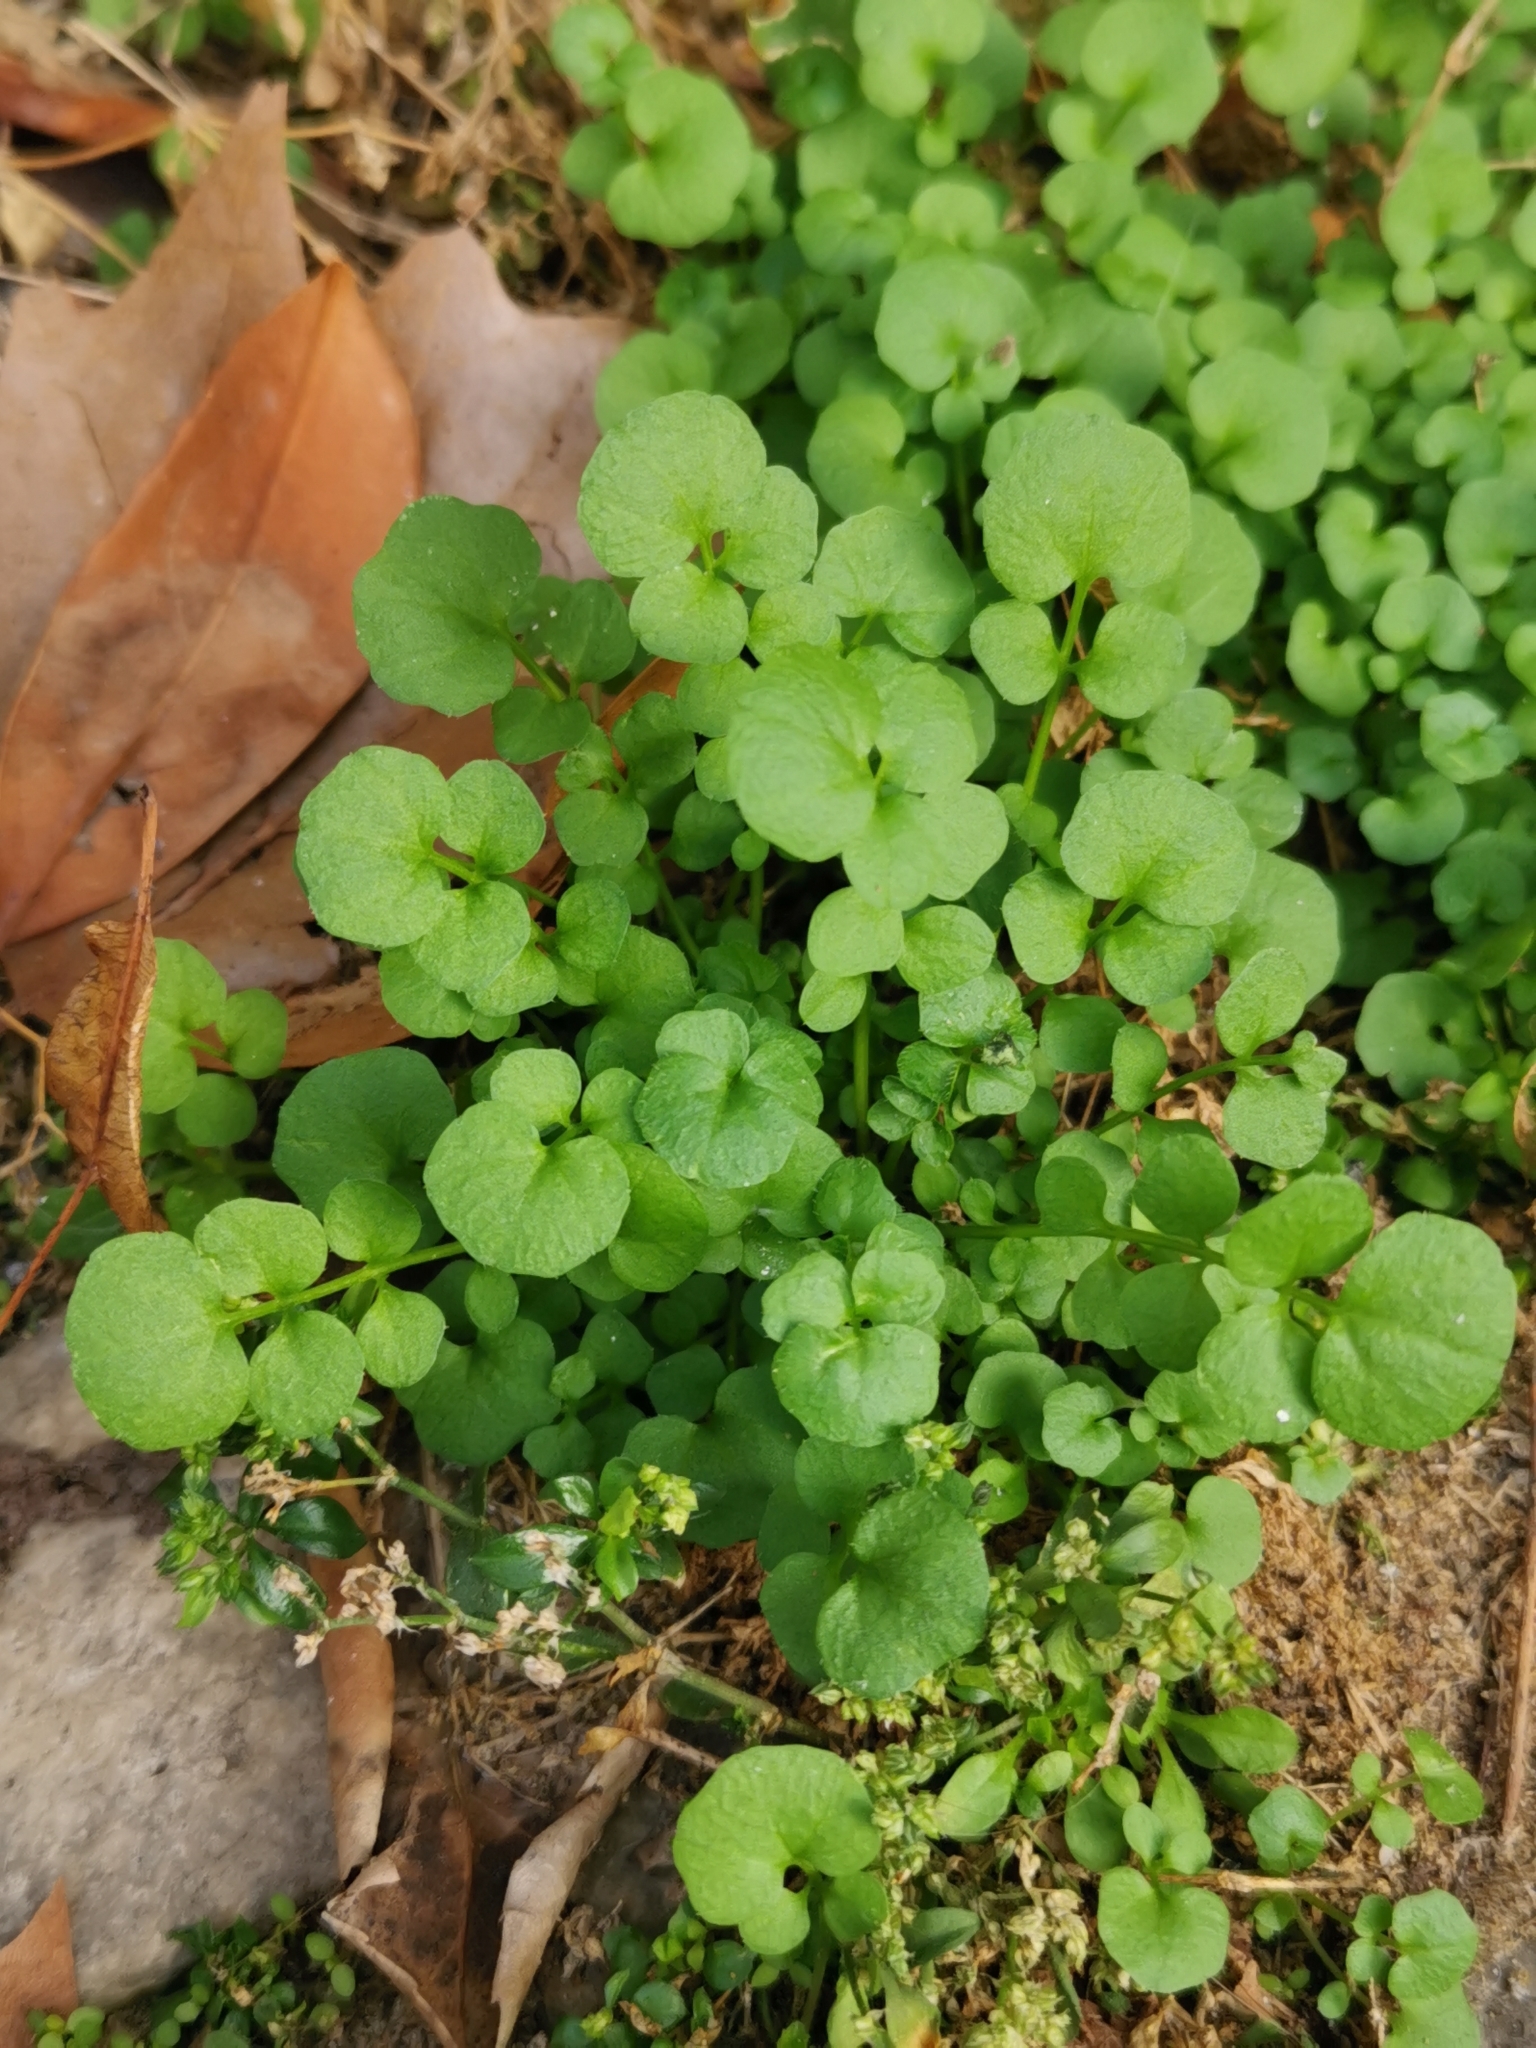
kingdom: Plantae
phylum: Tracheophyta
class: Magnoliopsida
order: Brassicales
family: Brassicaceae
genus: Cardamine
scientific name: Cardamine hirsuta
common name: Hairy bittercress
